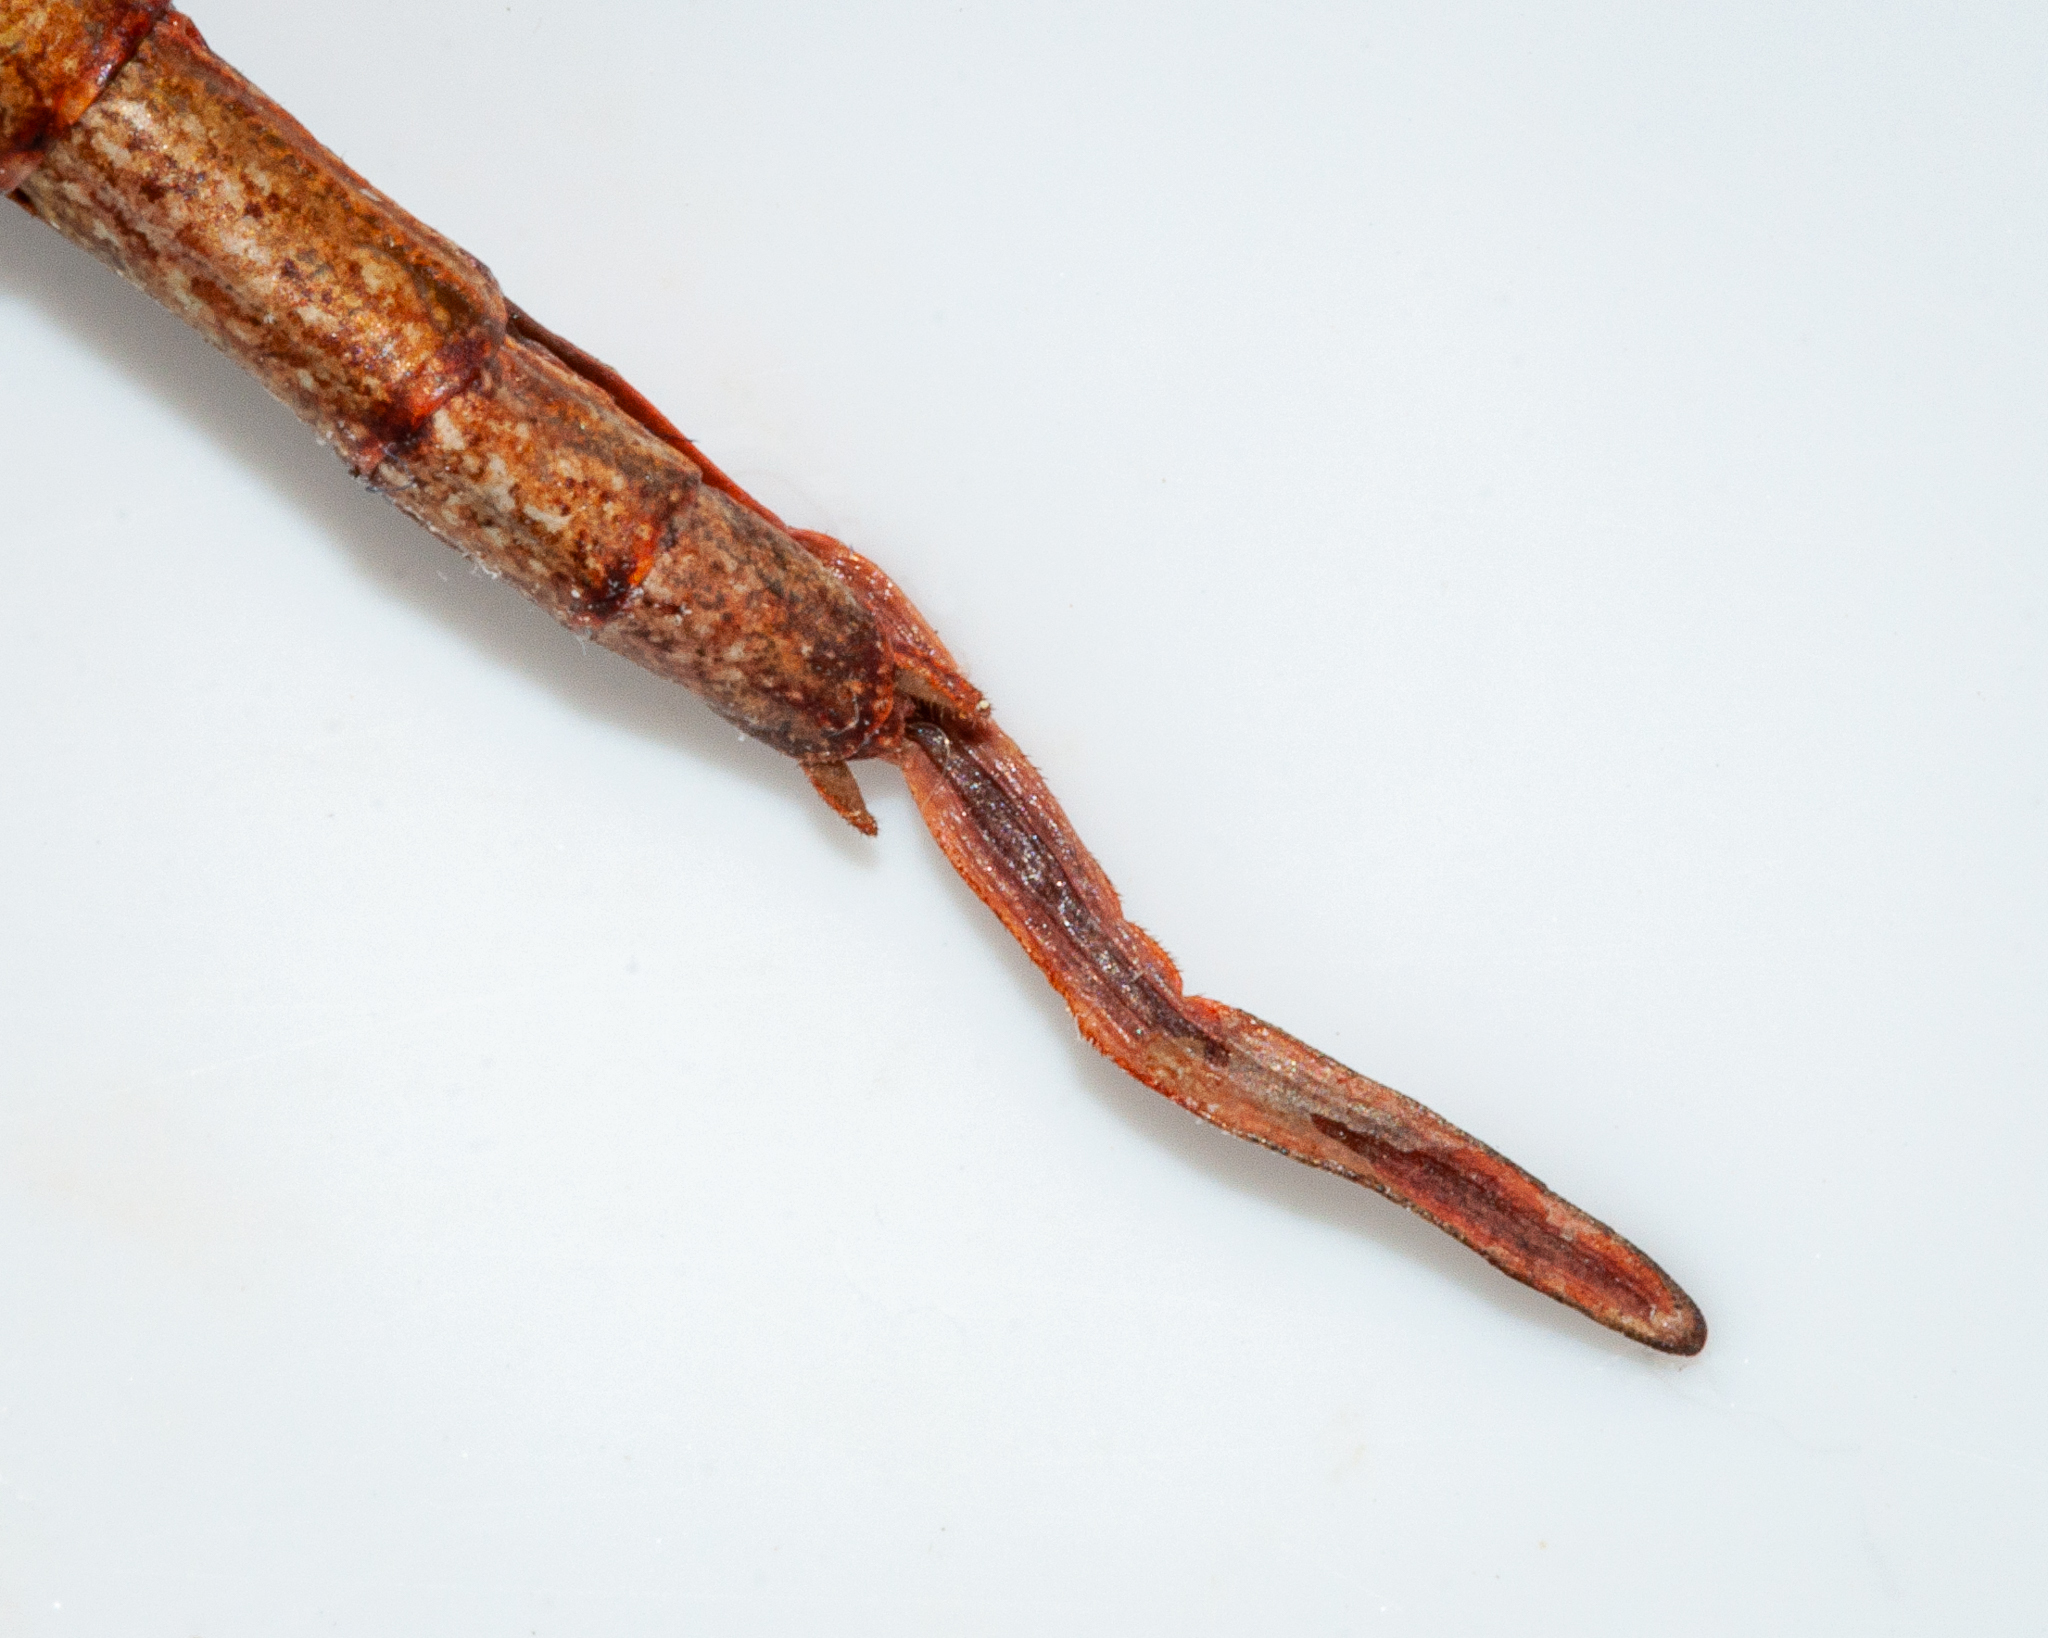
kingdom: Animalia
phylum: Arthropoda
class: Insecta
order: Phasmida
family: Bacillidae
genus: Phalces
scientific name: Phalces brevis
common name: Cape stick insect
